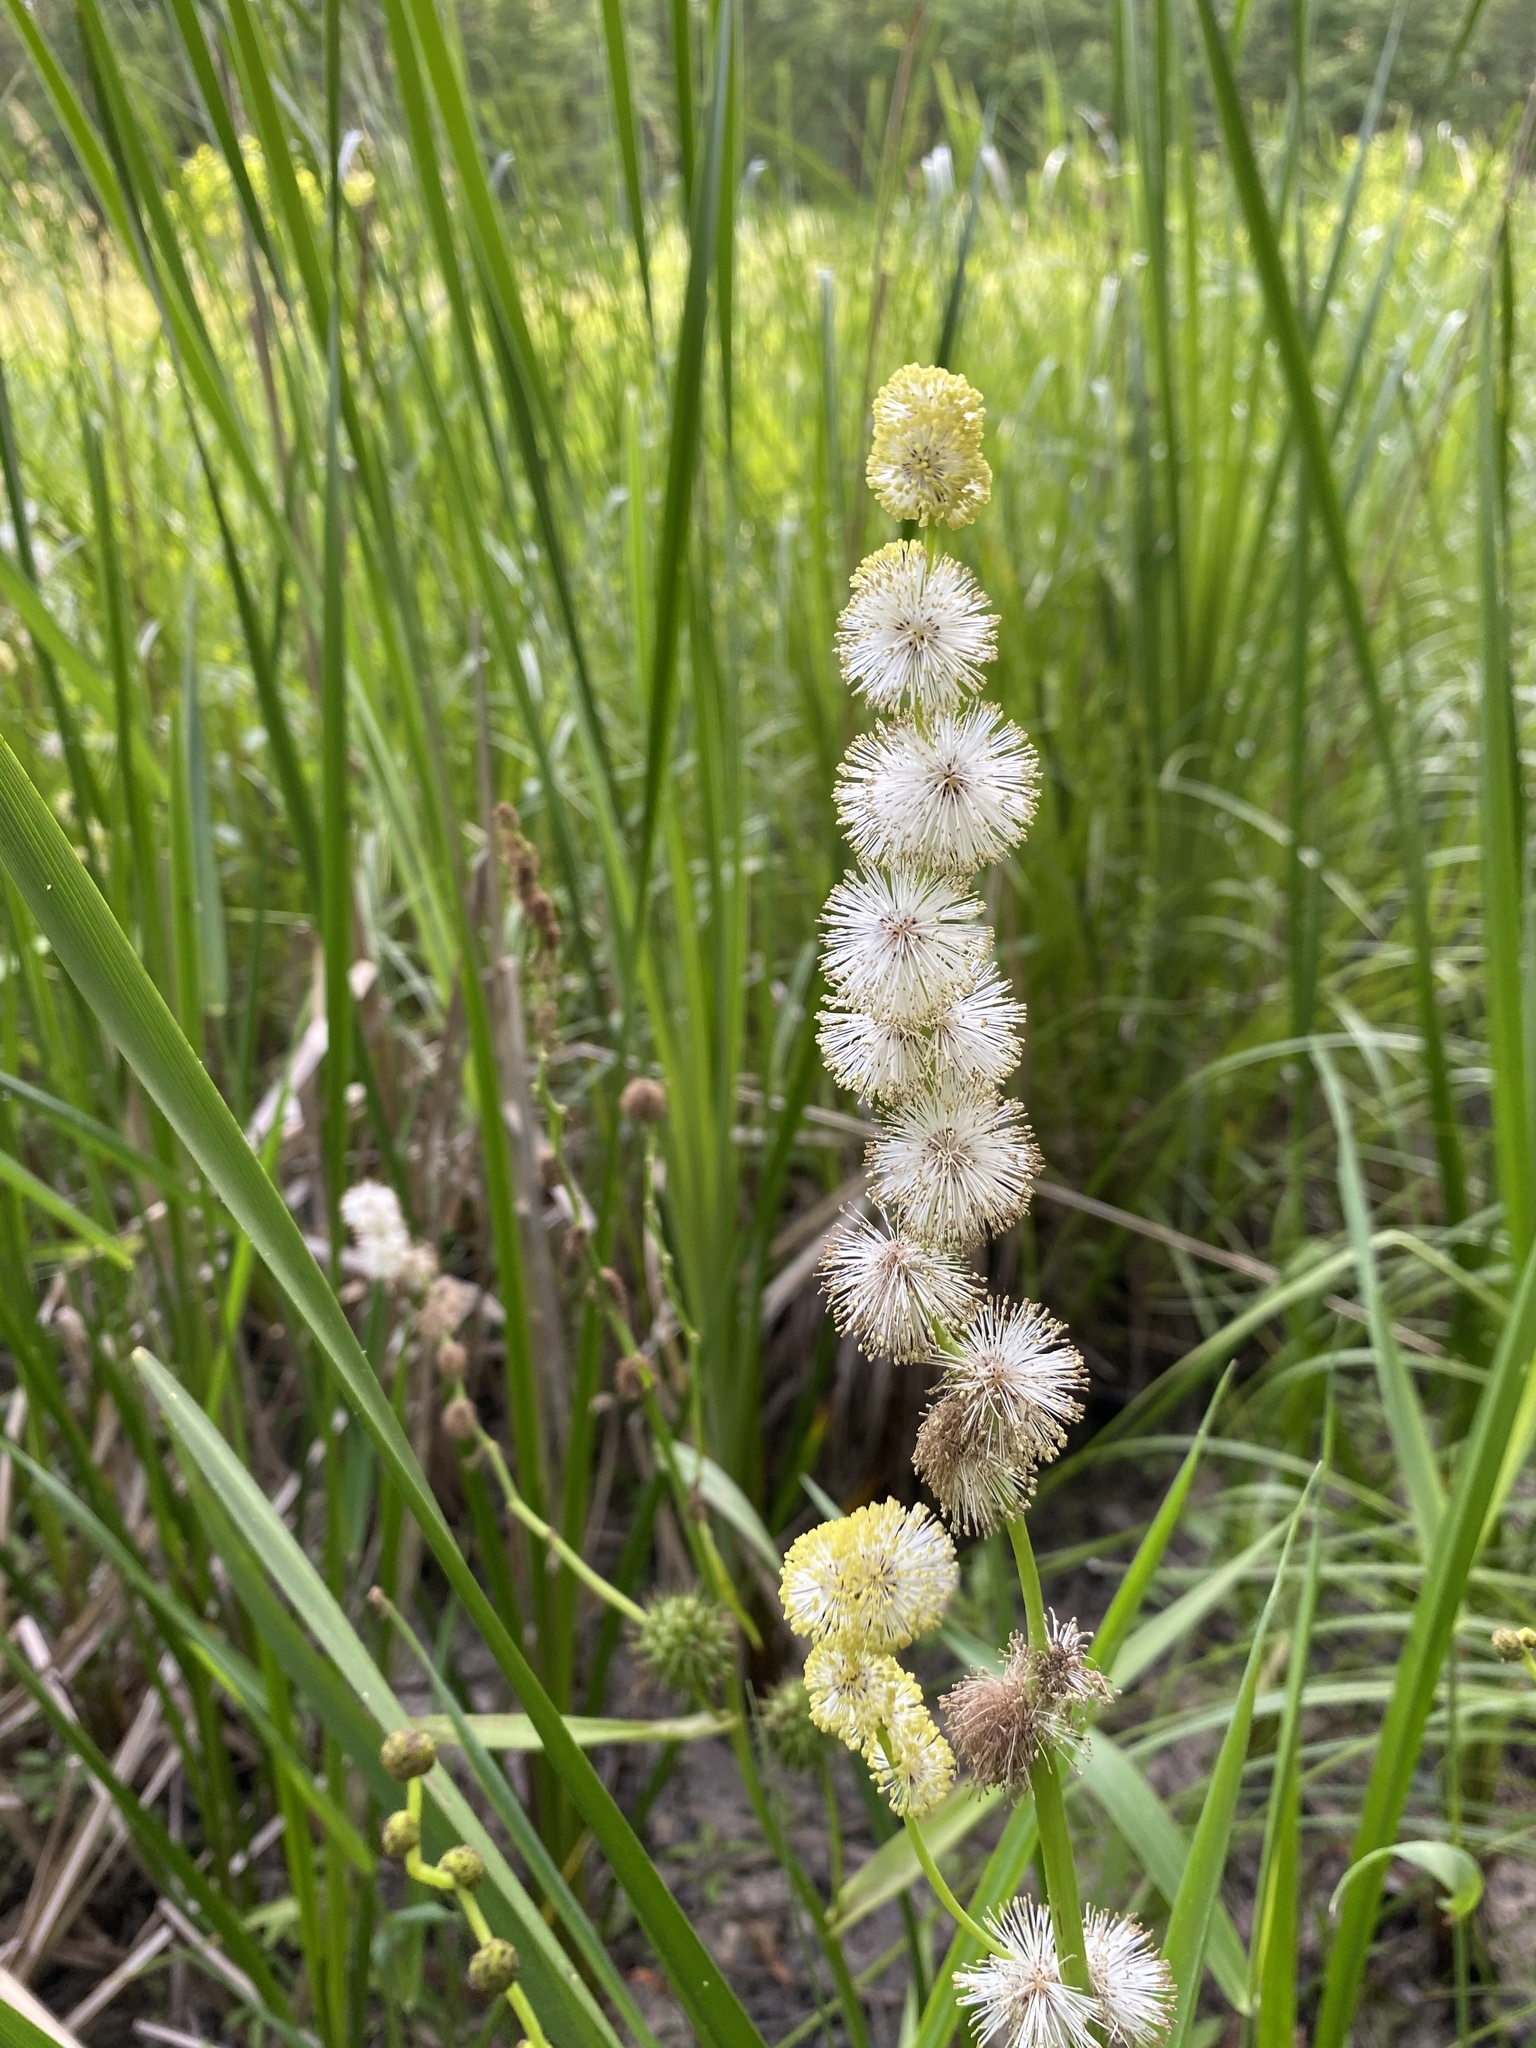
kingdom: Plantae
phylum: Tracheophyta
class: Liliopsida
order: Poales
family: Typhaceae
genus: Sparganium
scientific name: Sparganium eurycarpum
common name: Broad-fruited burreed
